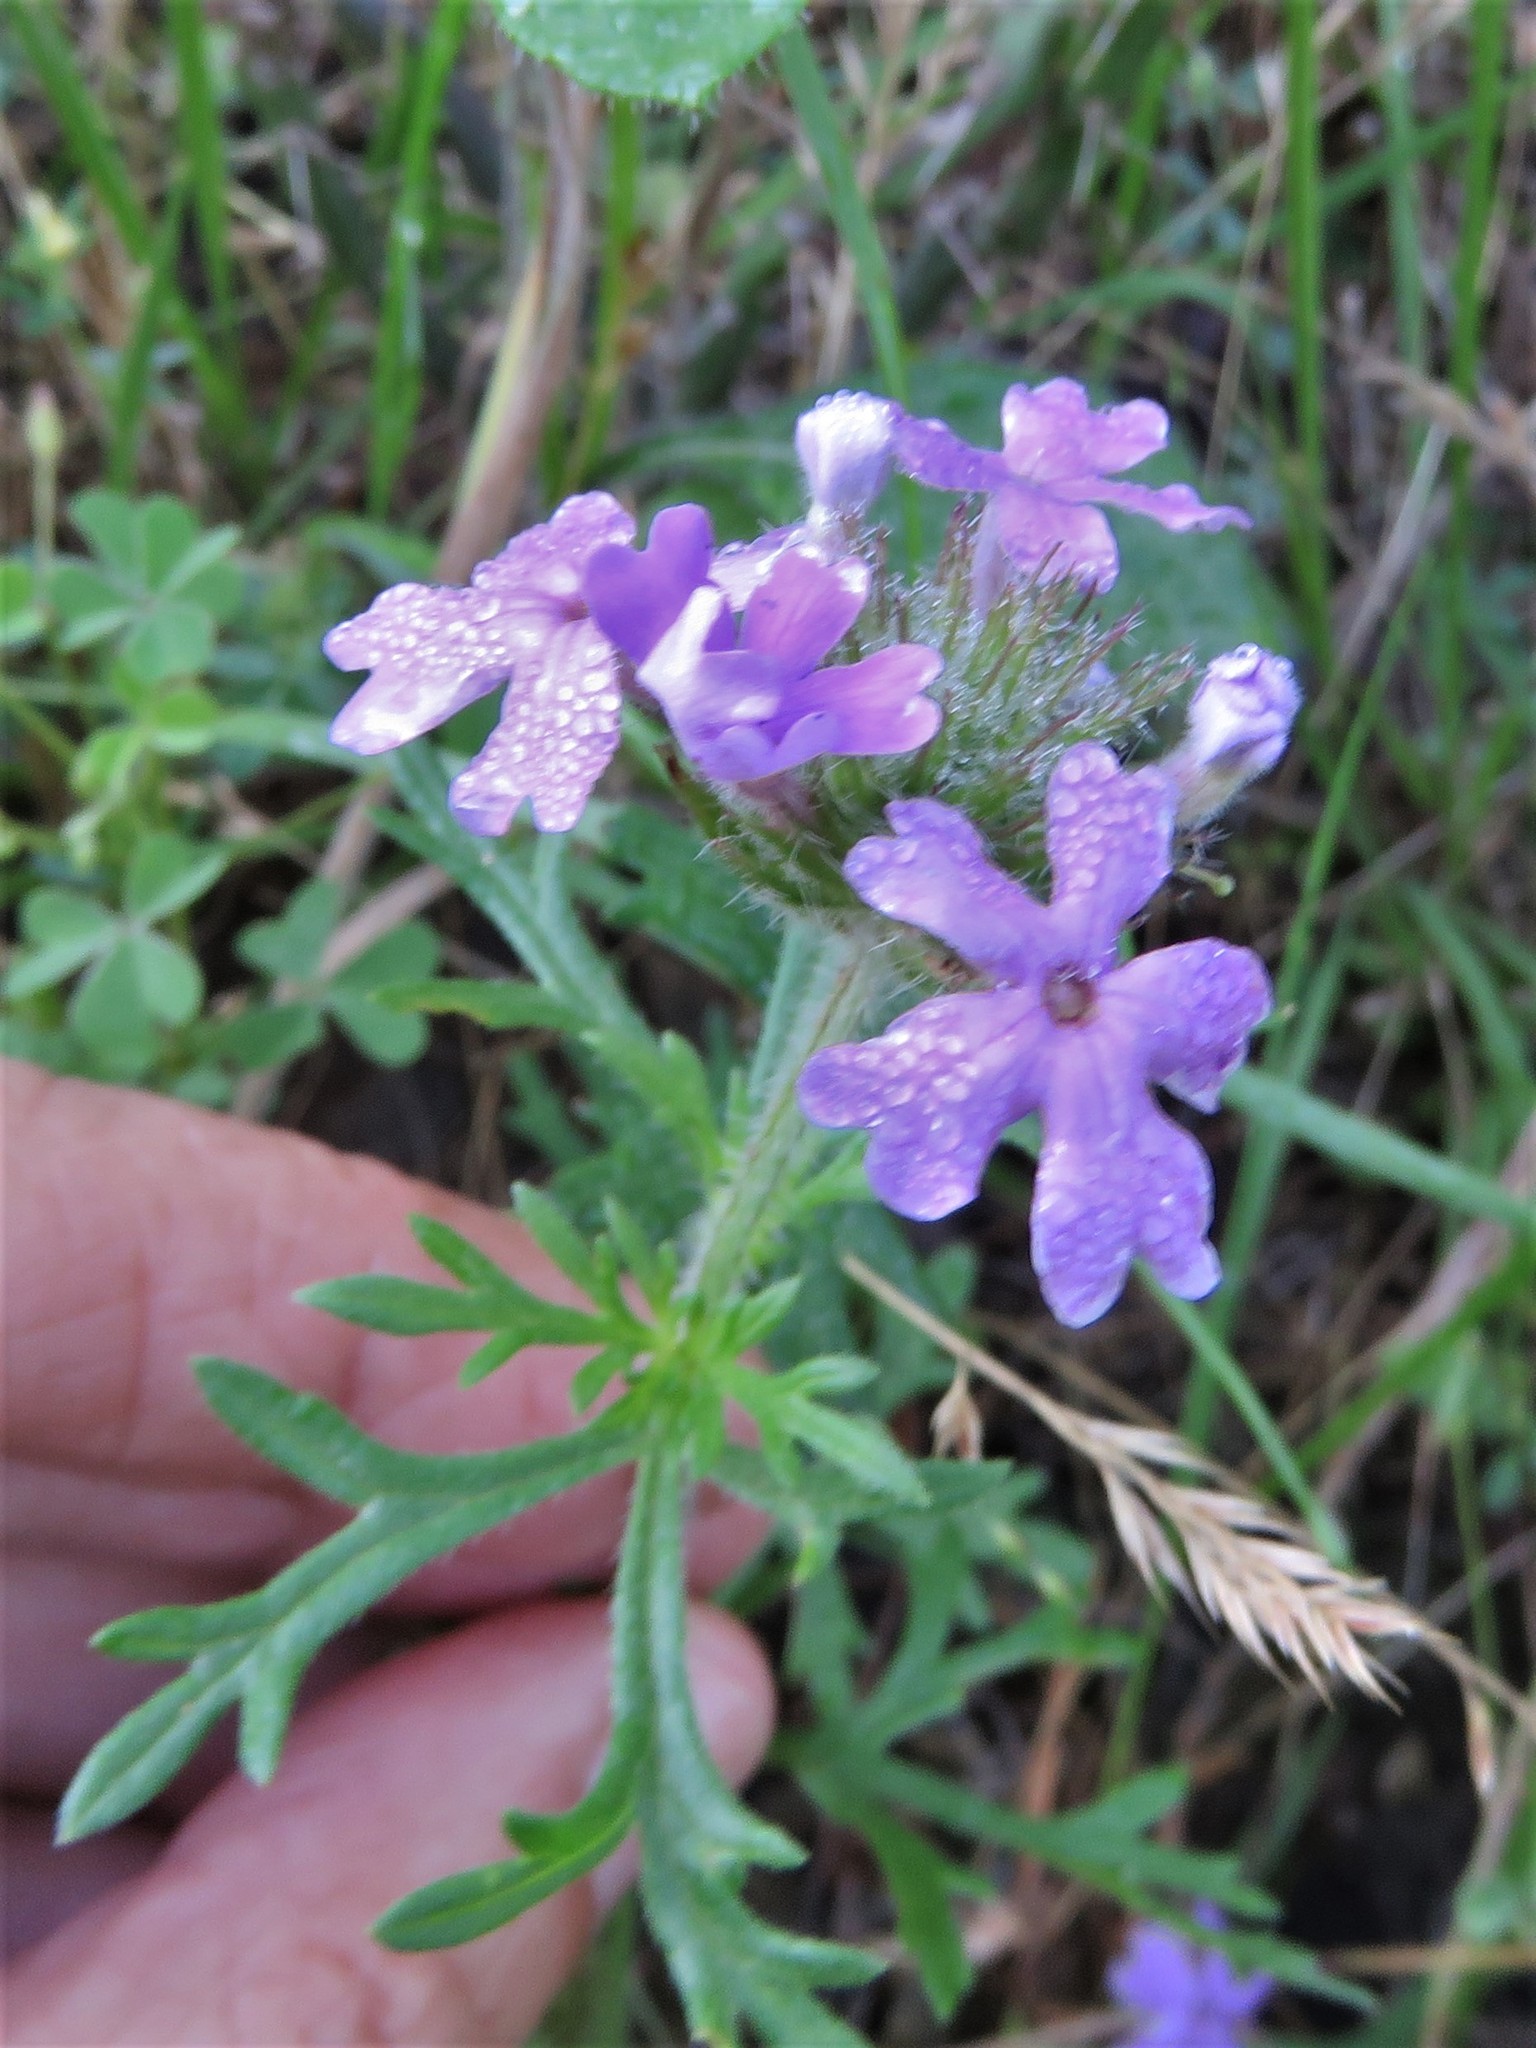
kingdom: Plantae
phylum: Tracheophyta
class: Magnoliopsida
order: Lamiales
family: Verbenaceae
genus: Verbena
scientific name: Verbena bipinnatifida
